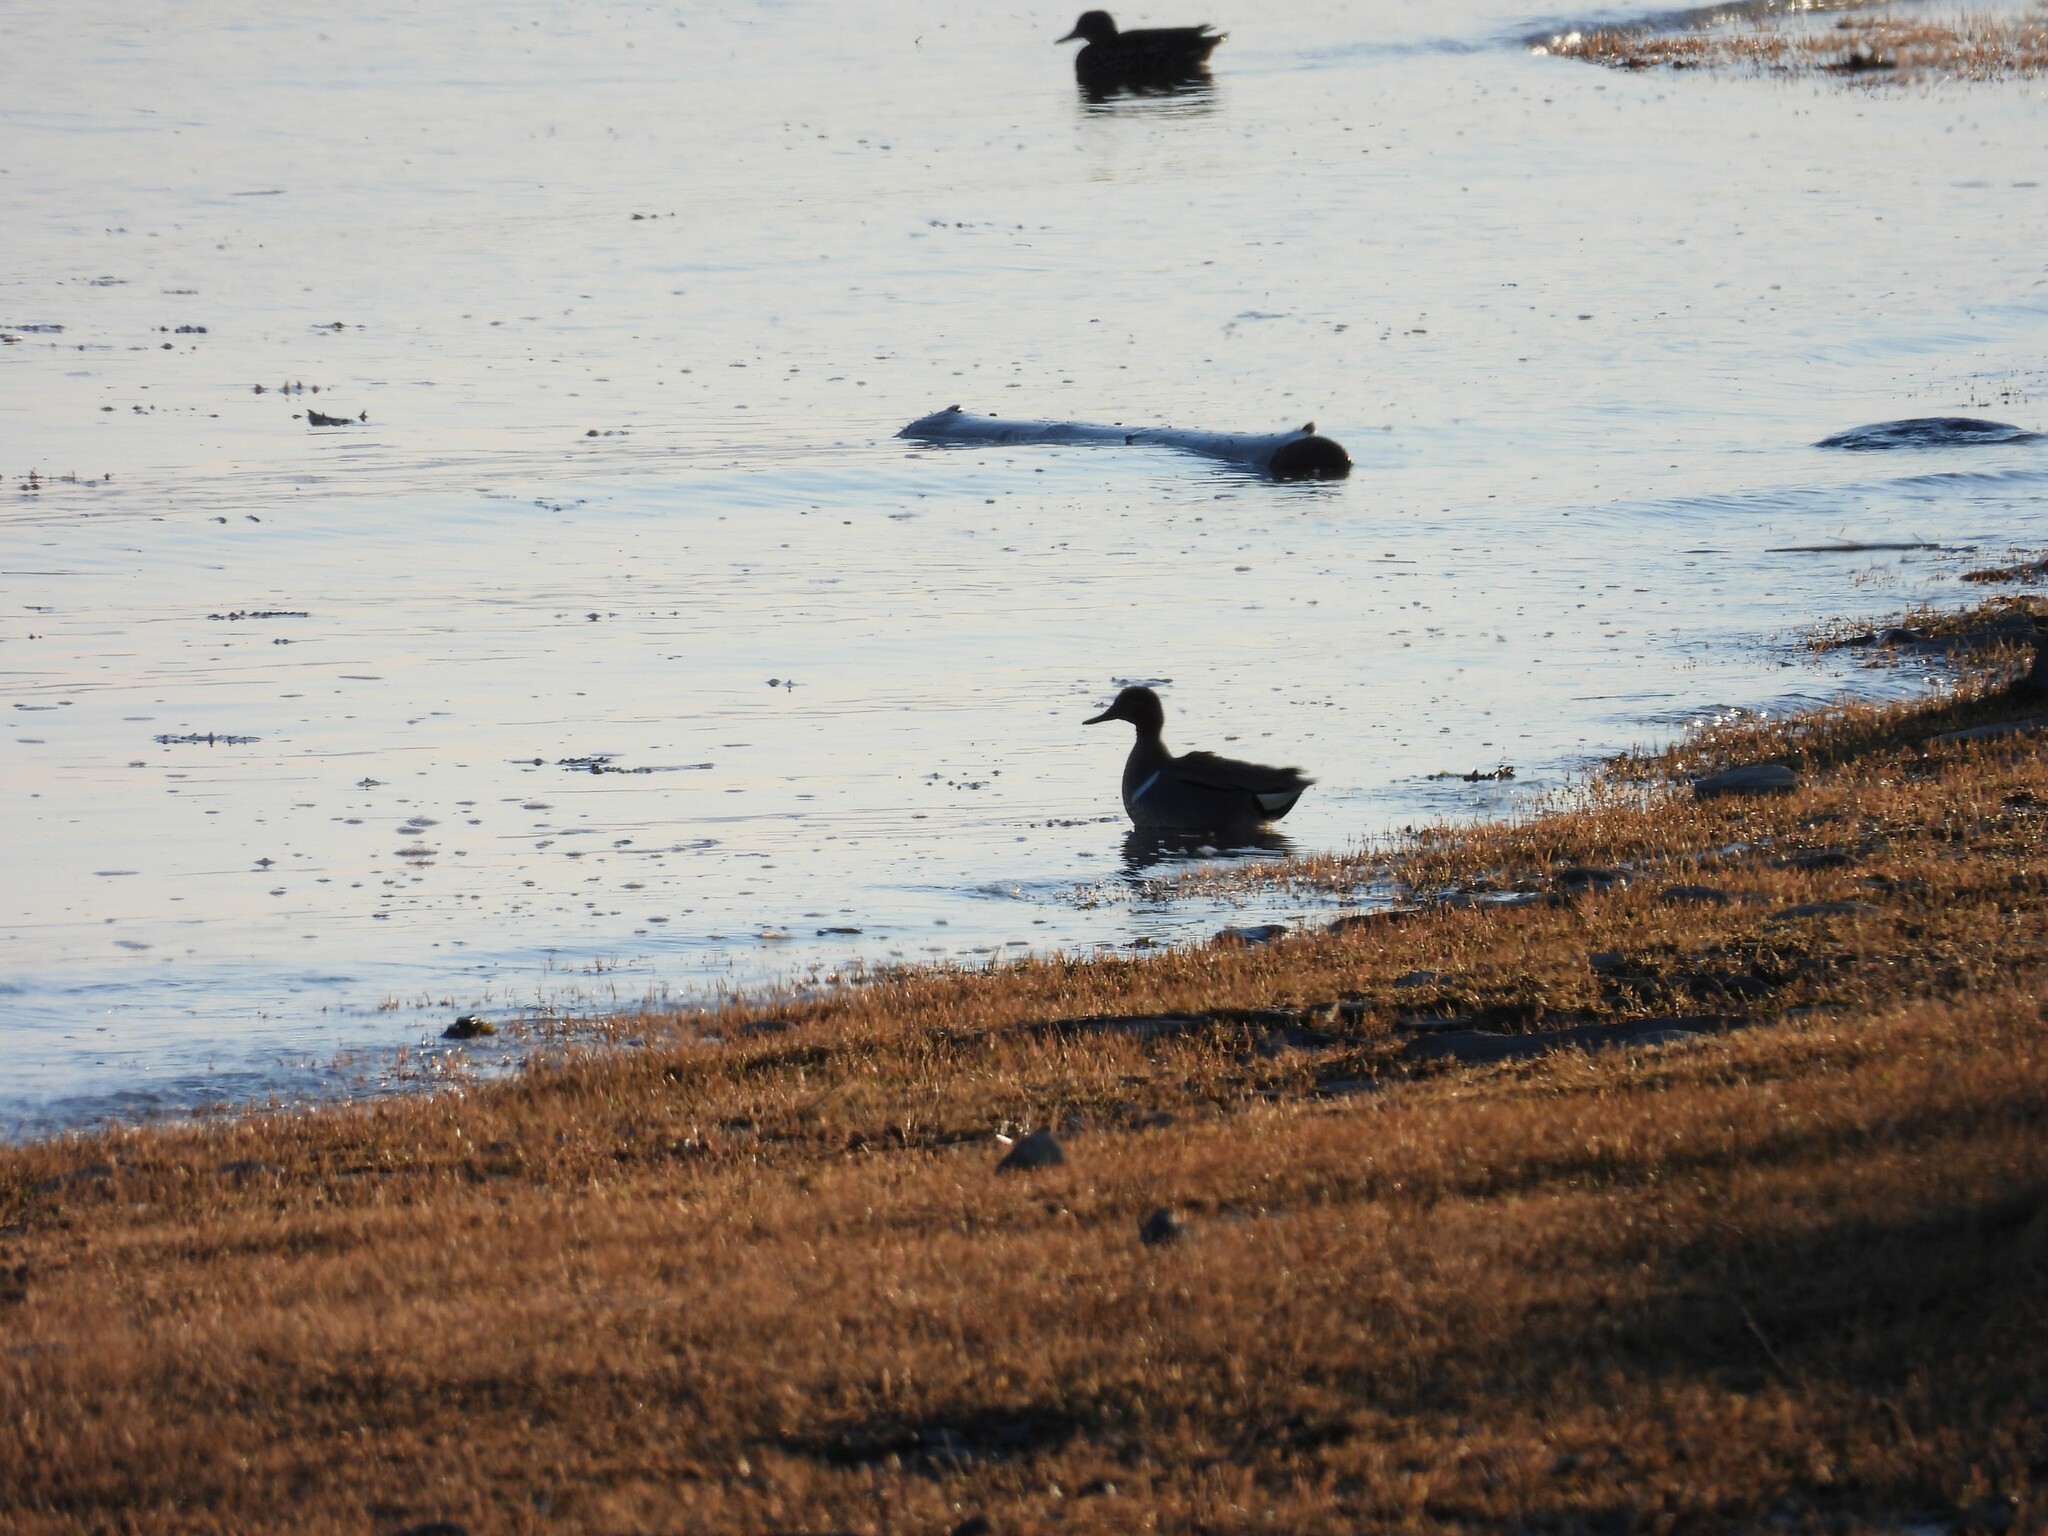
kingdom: Animalia
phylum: Chordata
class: Aves
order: Anseriformes
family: Anatidae
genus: Anas
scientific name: Anas crecca
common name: Eurasian teal
